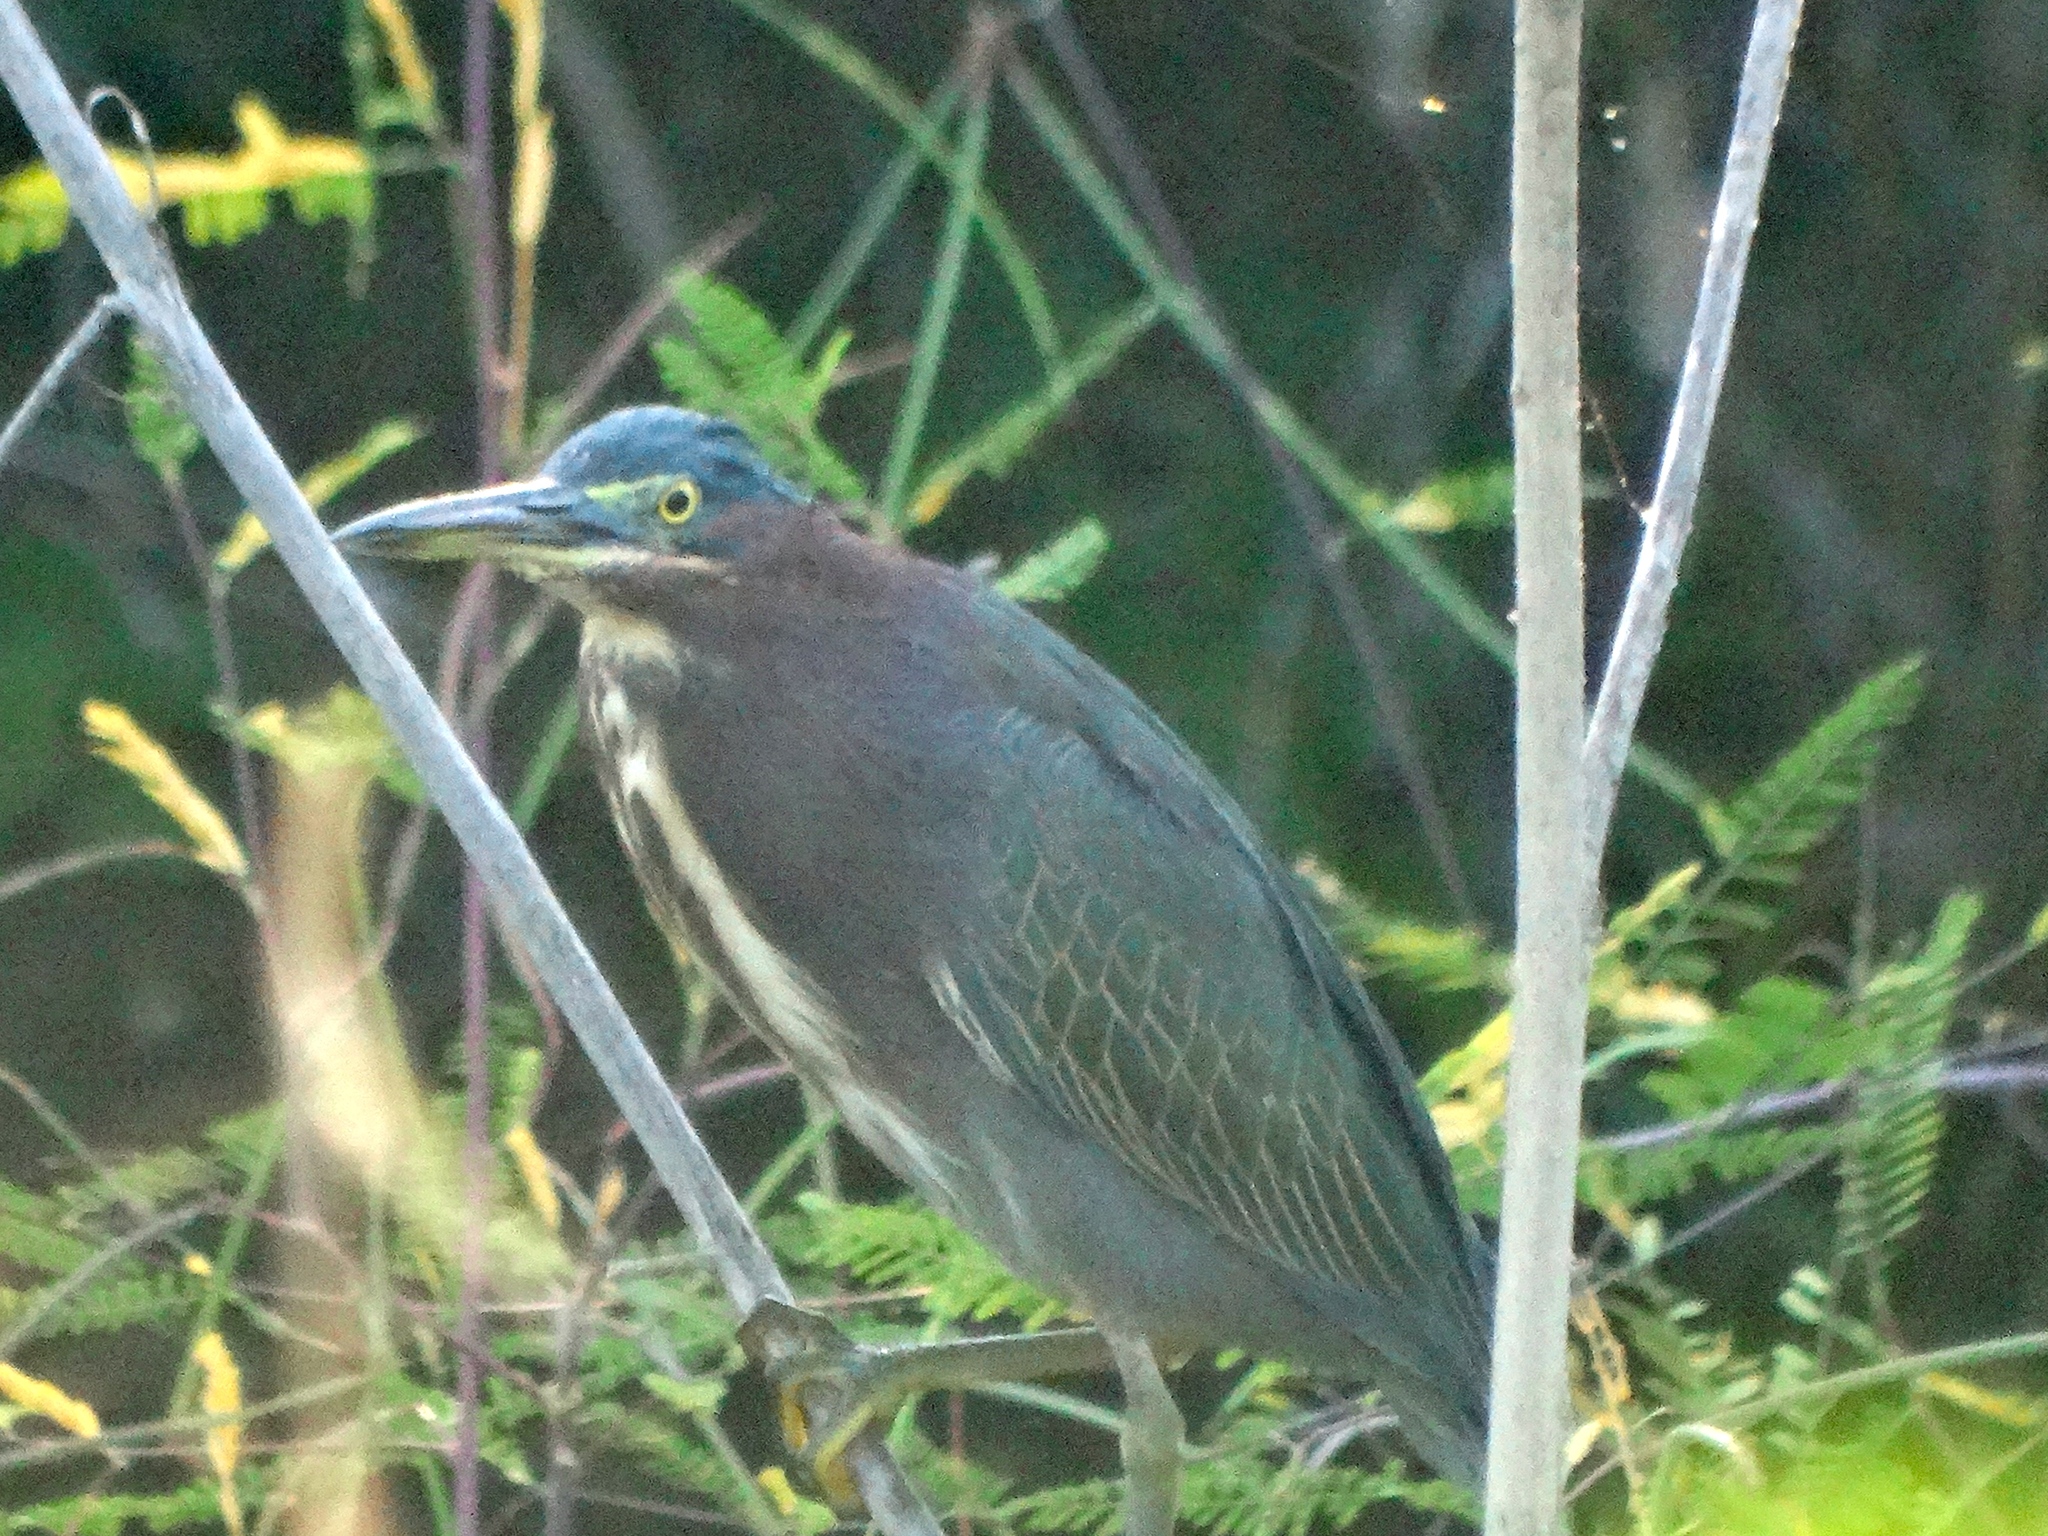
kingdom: Animalia
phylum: Chordata
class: Aves
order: Pelecaniformes
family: Ardeidae
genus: Butorides
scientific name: Butorides virescens
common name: Green heron
